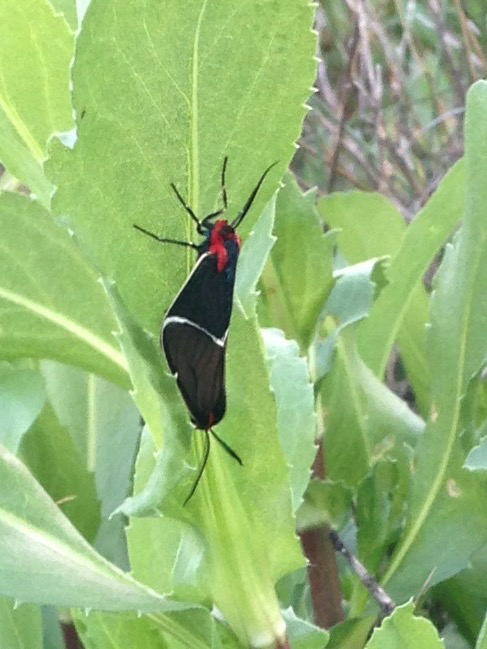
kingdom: Animalia
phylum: Arthropoda
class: Insecta
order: Lepidoptera
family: Erebidae
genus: Ctenucha
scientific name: Ctenucha multifaria
